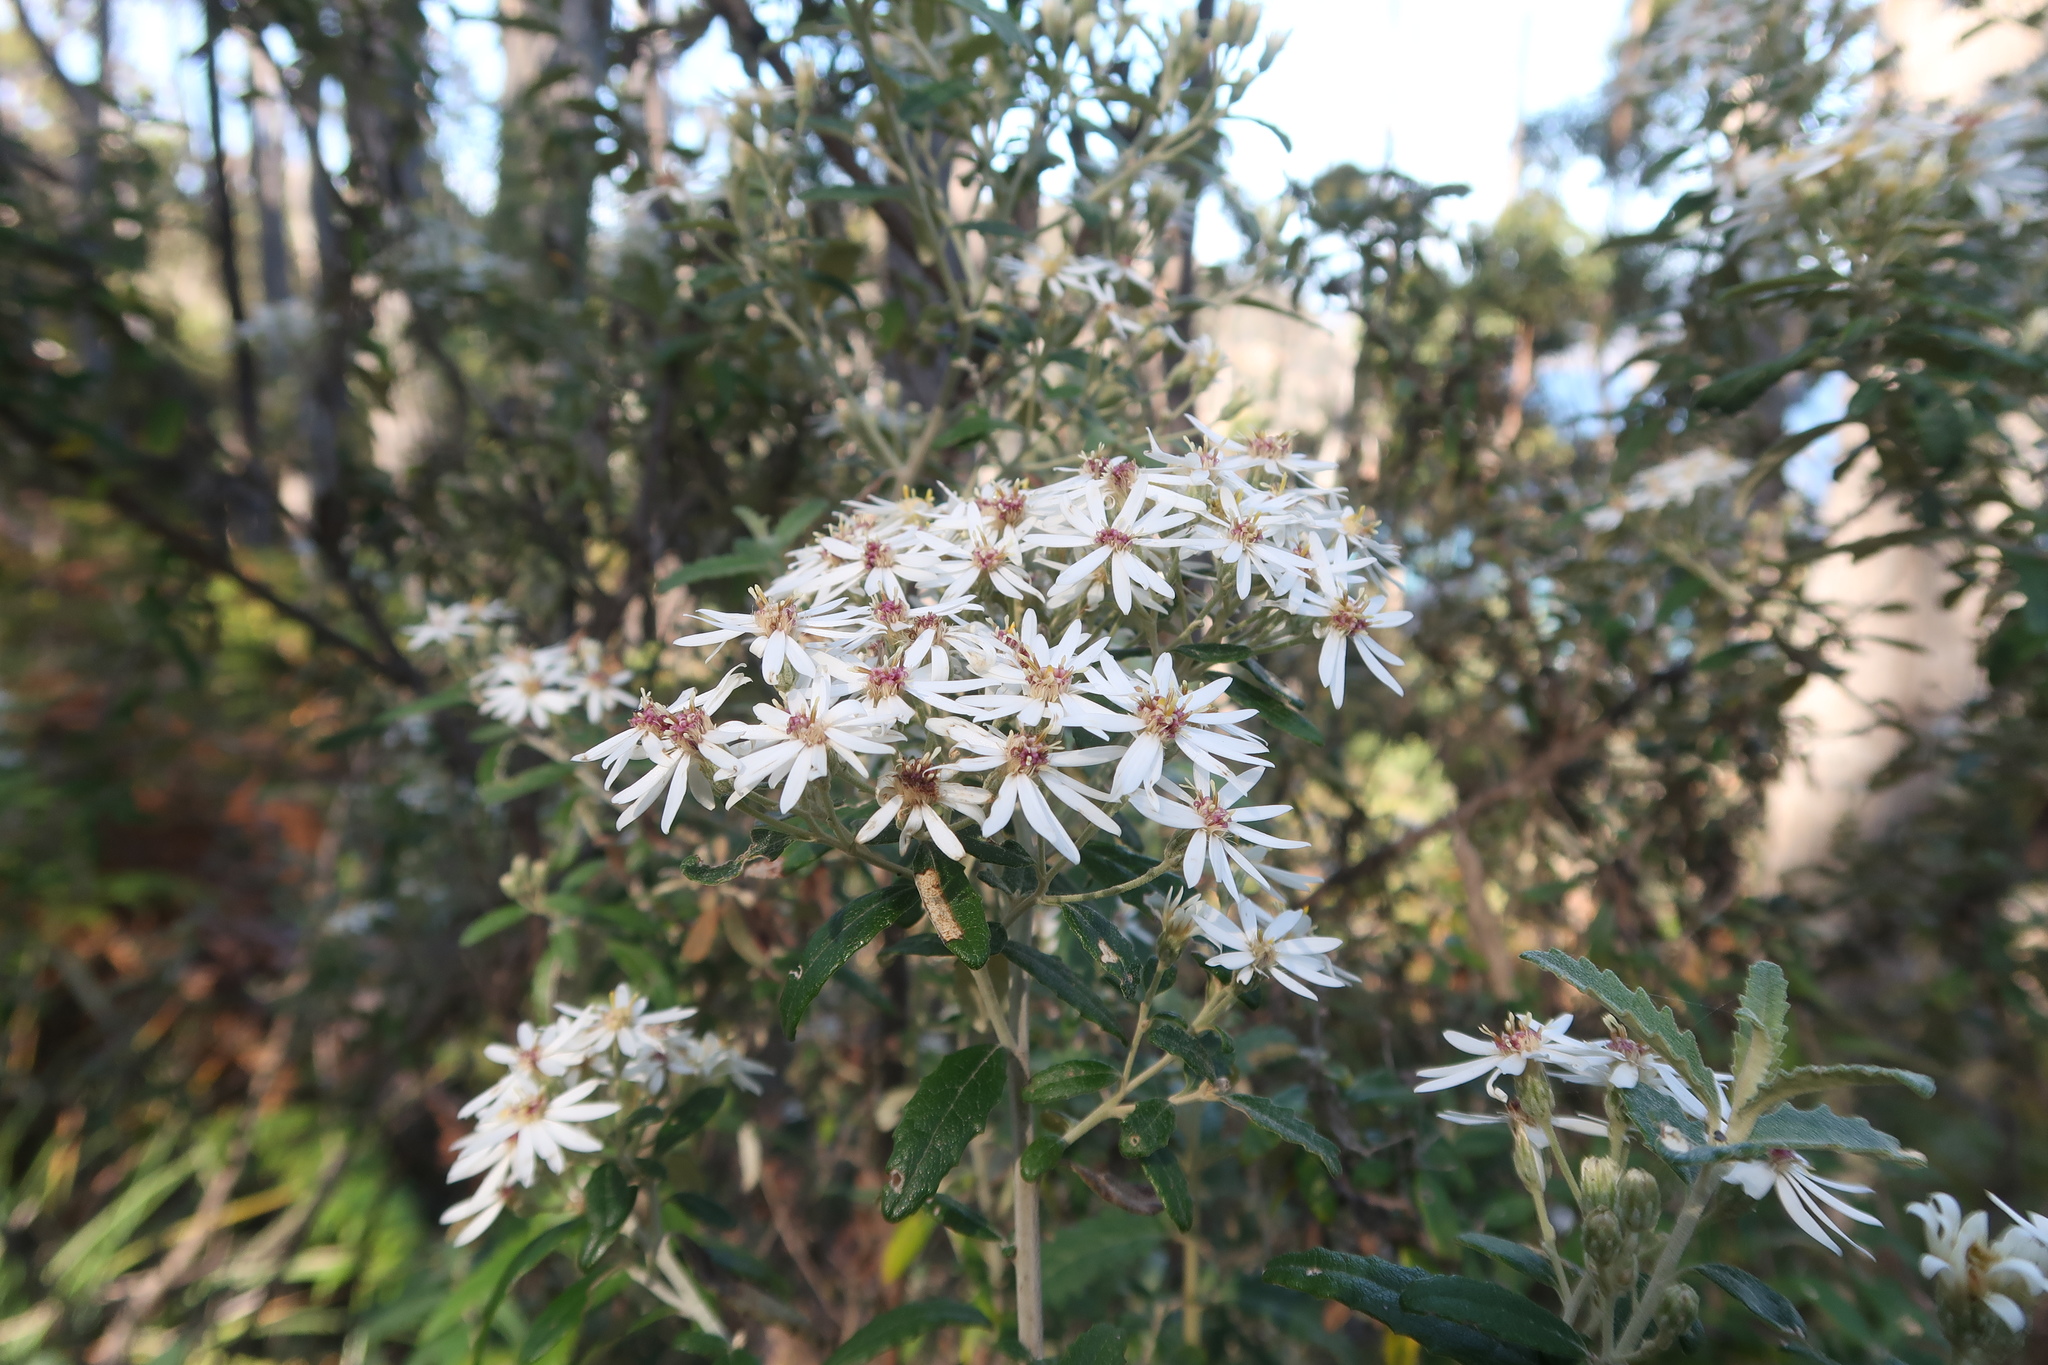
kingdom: Plantae
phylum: Tracheophyta
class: Magnoliopsida
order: Asterales
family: Asteraceae
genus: Olearia
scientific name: Olearia stellulata
